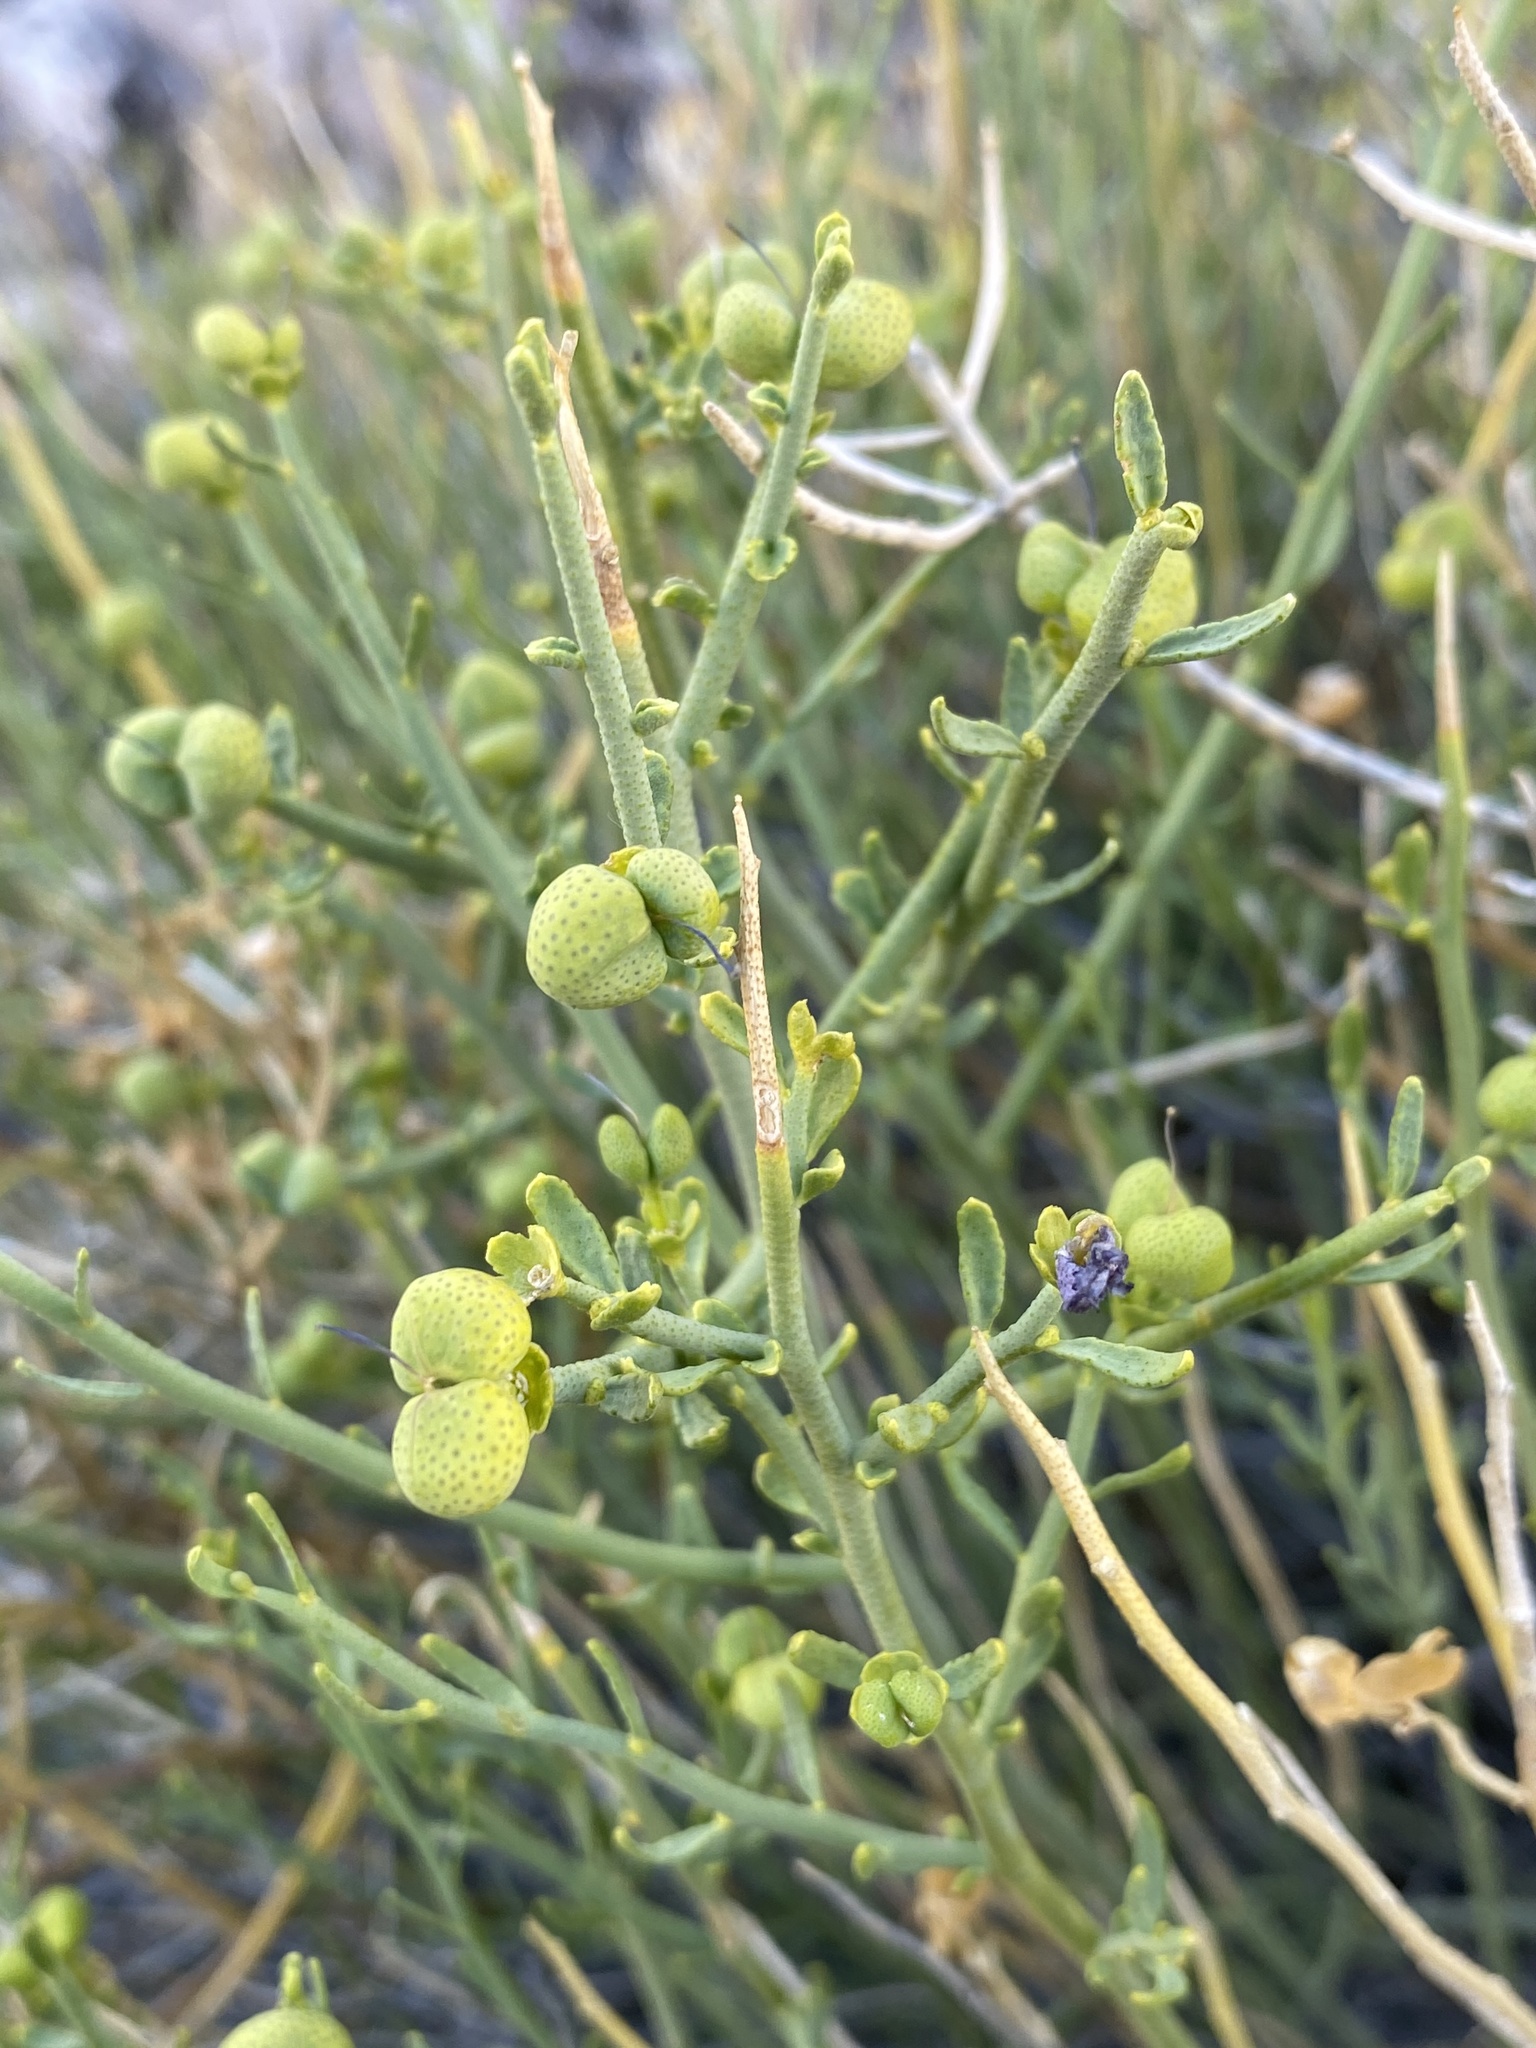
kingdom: Plantae
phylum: Tracheophyta
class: Magnoliopsida
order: Sapindales
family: Rutaceae
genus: Thamnosma
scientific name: Thamnosma montana
